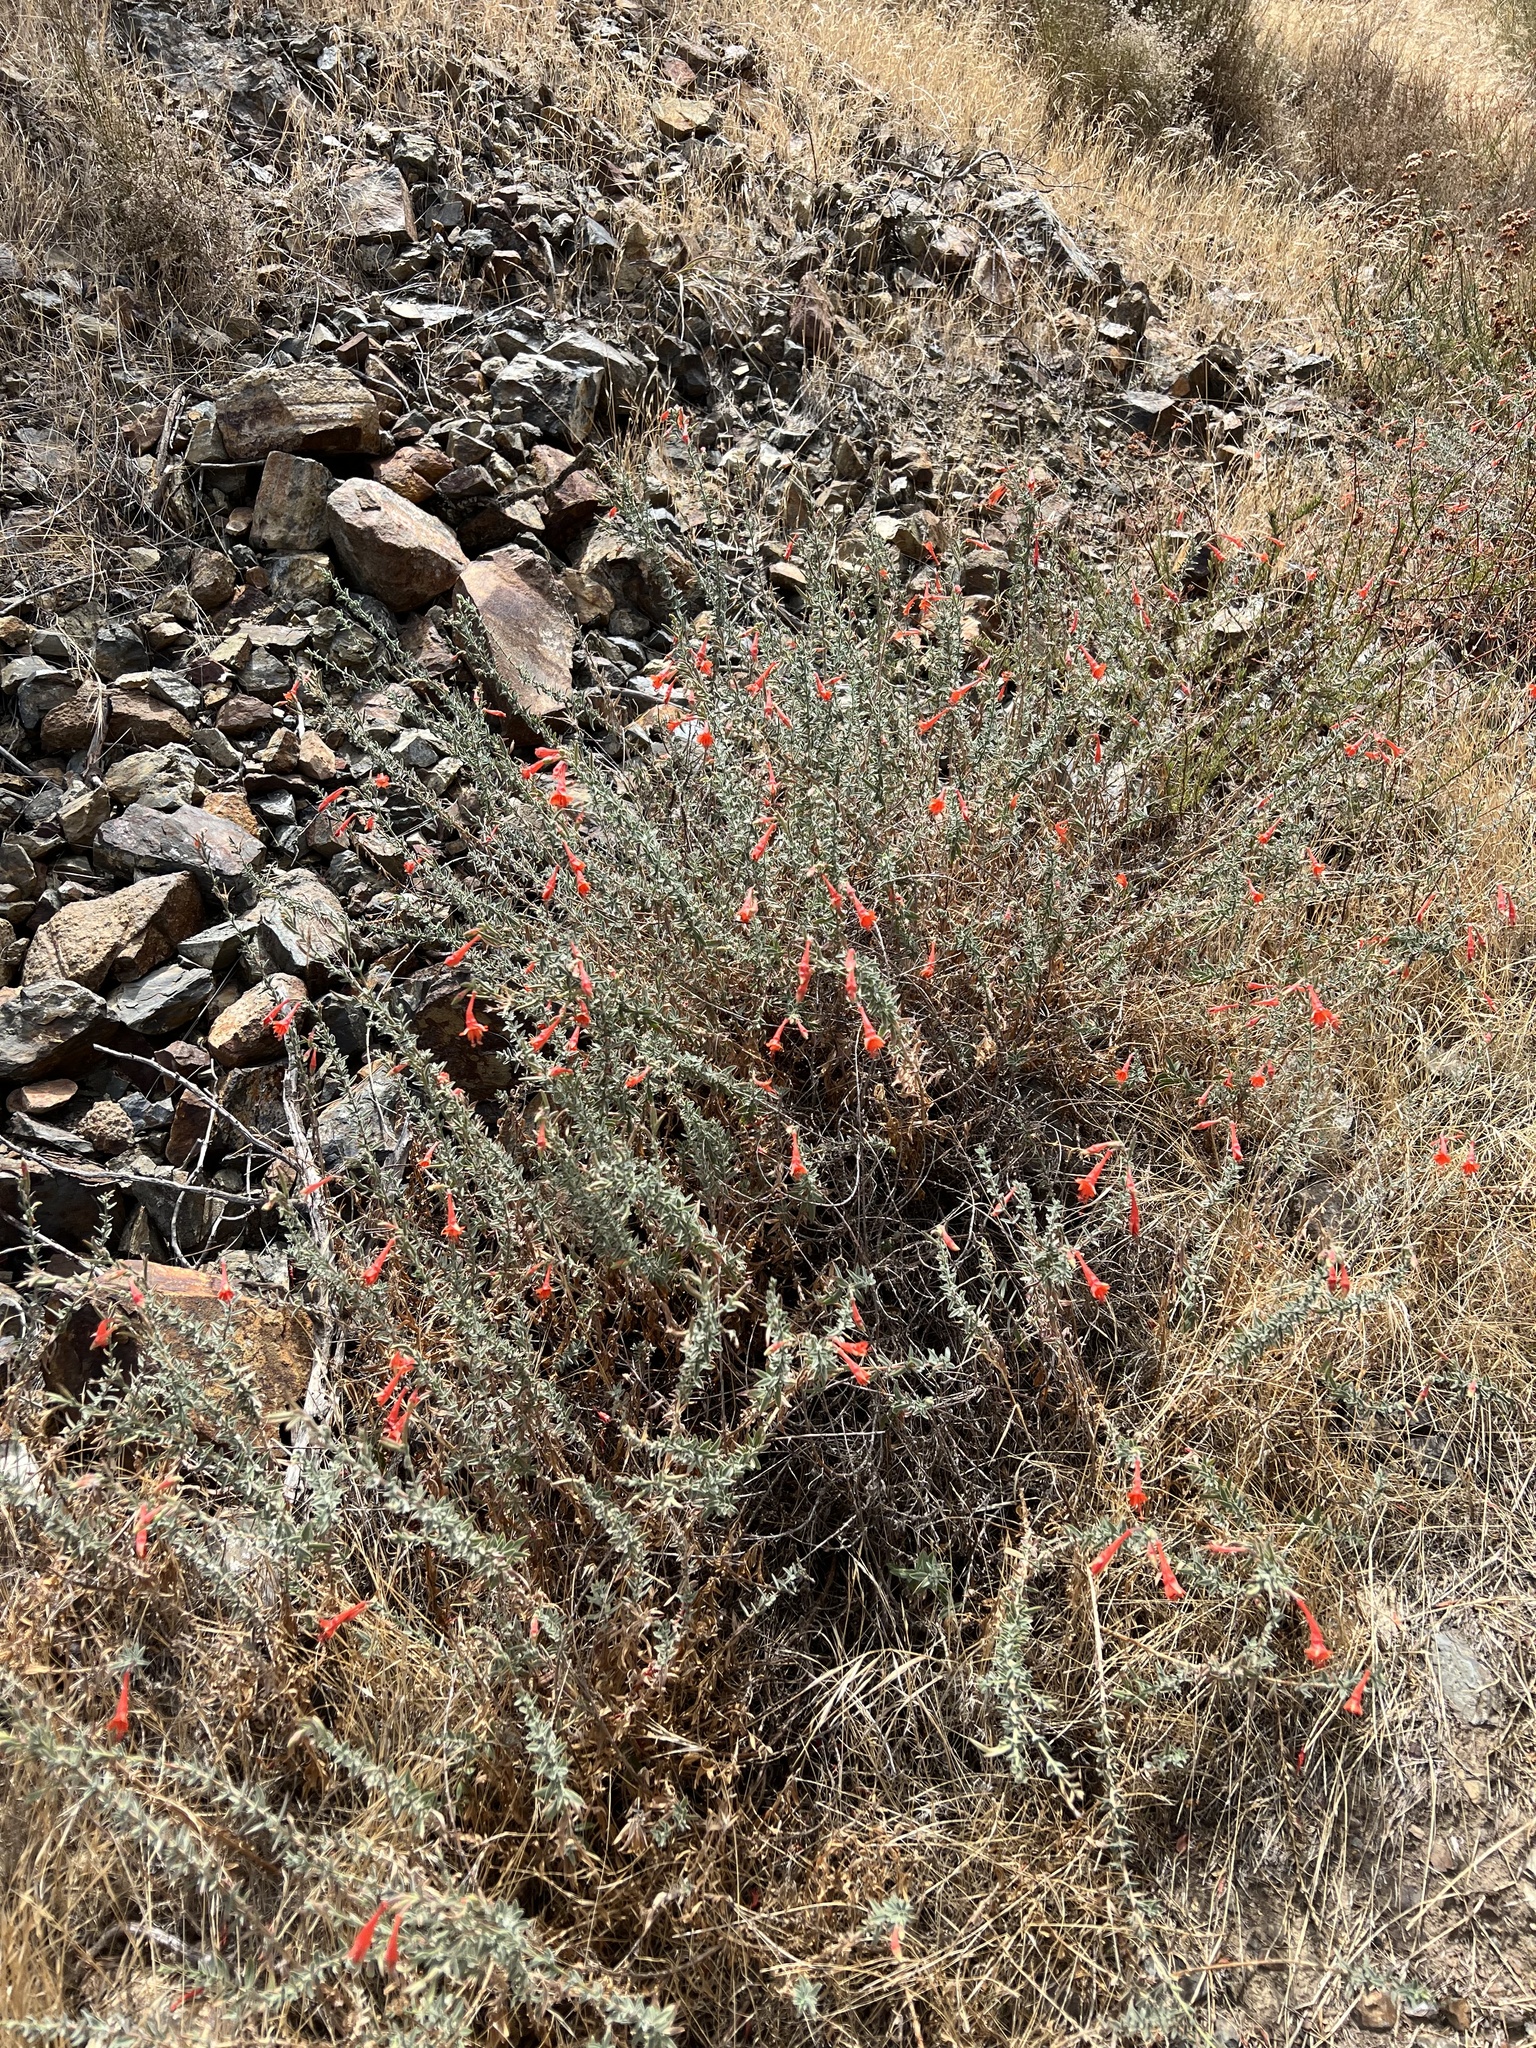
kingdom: Plantae
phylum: Tracheophyta
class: Magnoliopsida
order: Myrtales
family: Onagraceae
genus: Epilobium
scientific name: Epilobium canum
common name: California-fuchsia
